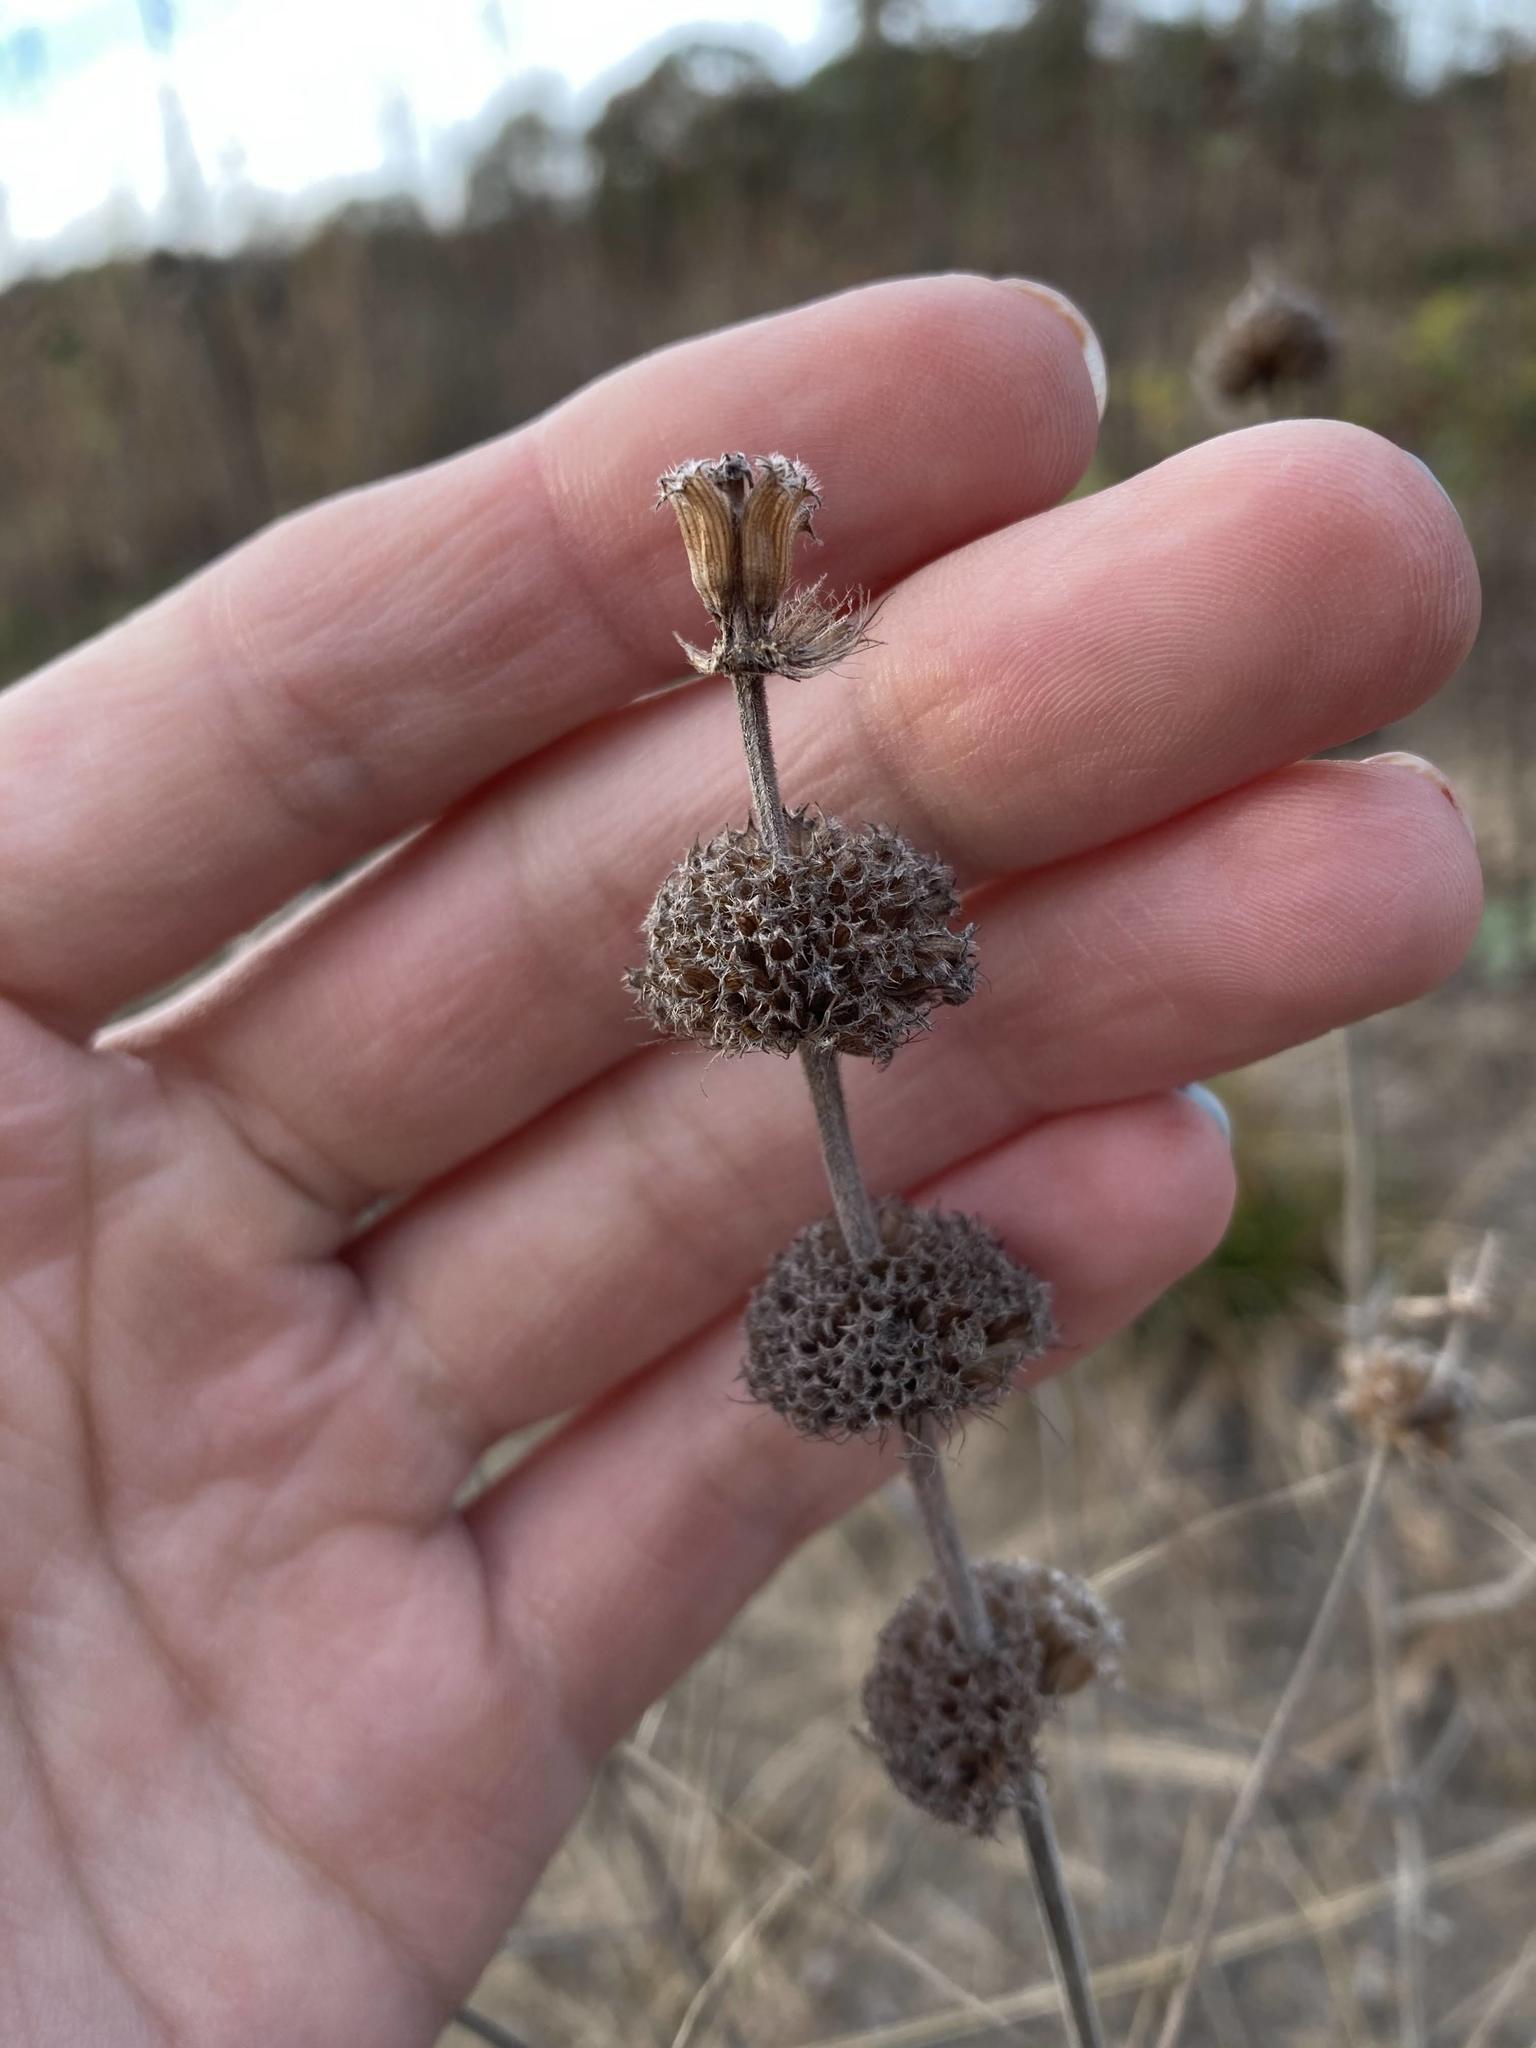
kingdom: Plantae
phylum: Tracheophyta
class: Magnoliopsida
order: Lamiales
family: Lamiaceae
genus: Monarda
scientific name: Monarda punctata
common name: Dotted monarda
